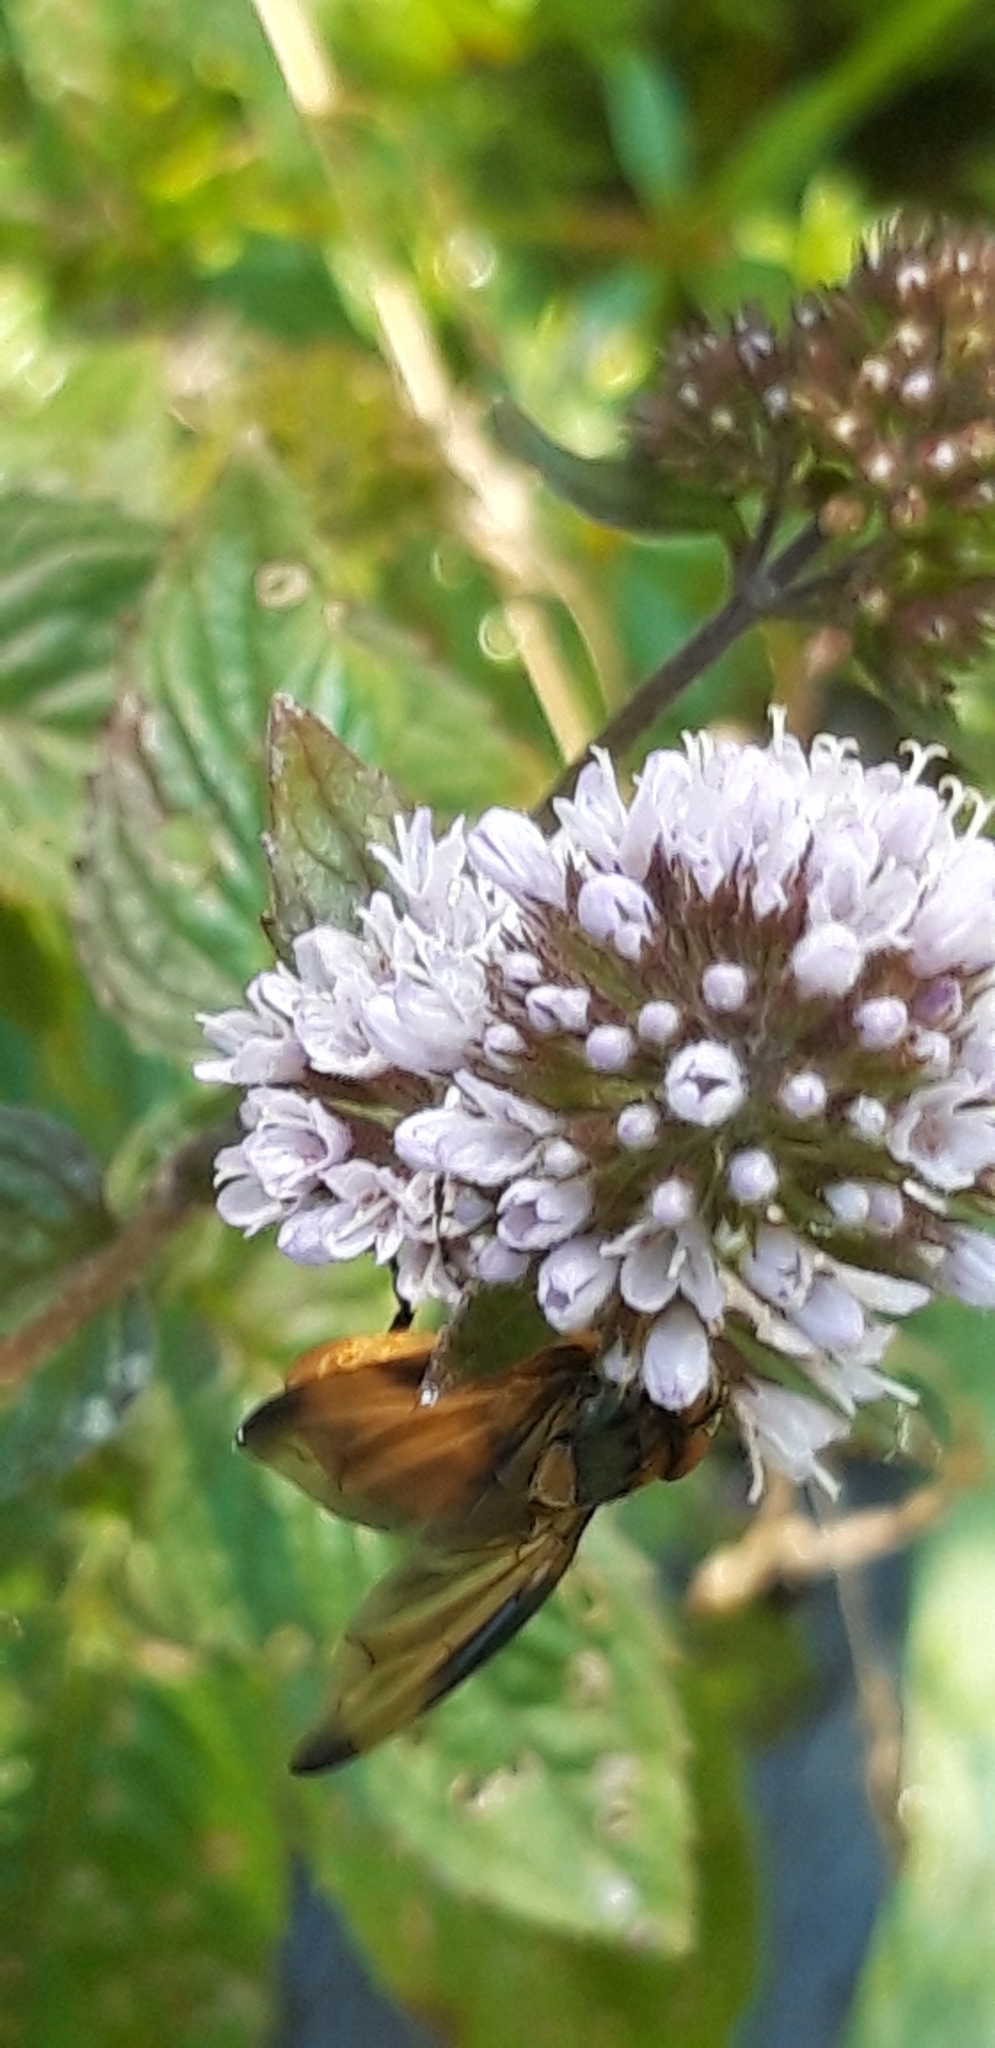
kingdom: Animalia
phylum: Arthropoda
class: Insecta
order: Diptera
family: Tachinidae
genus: Ectophasia
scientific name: Ectophasia crassipennis
